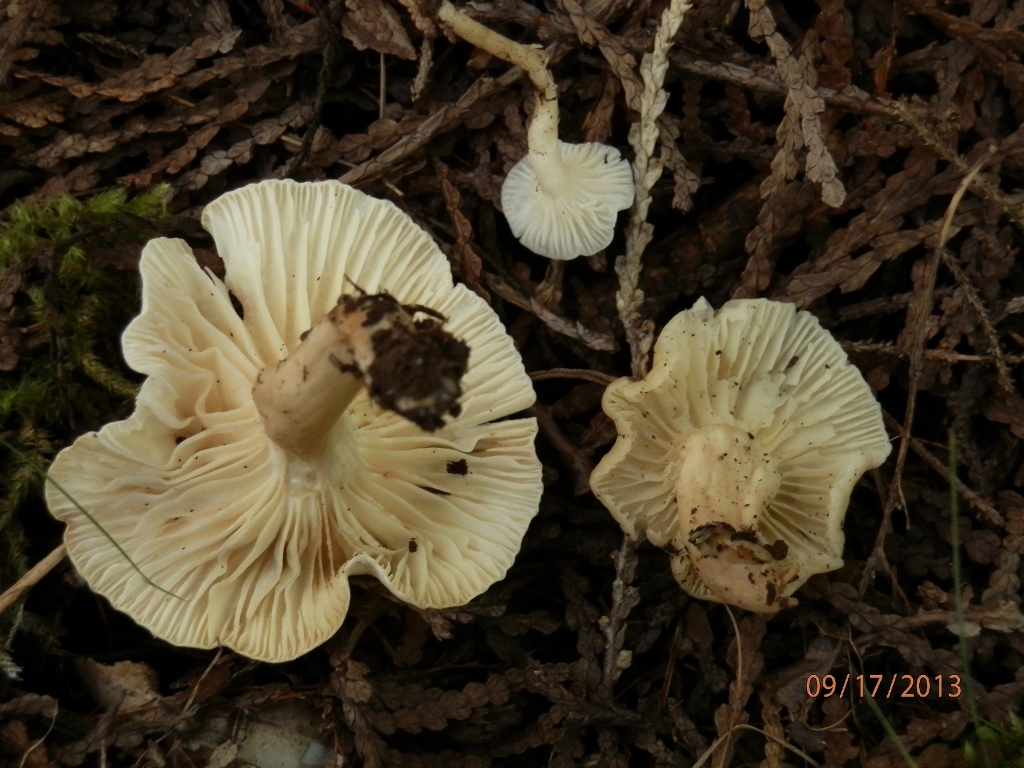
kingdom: Fungi
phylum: Basidiomycota
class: Agaricomycetes
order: Agaricales
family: Hygrophoraceae
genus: Cuphophyllus
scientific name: Cuphophyllus russocoriaceus
